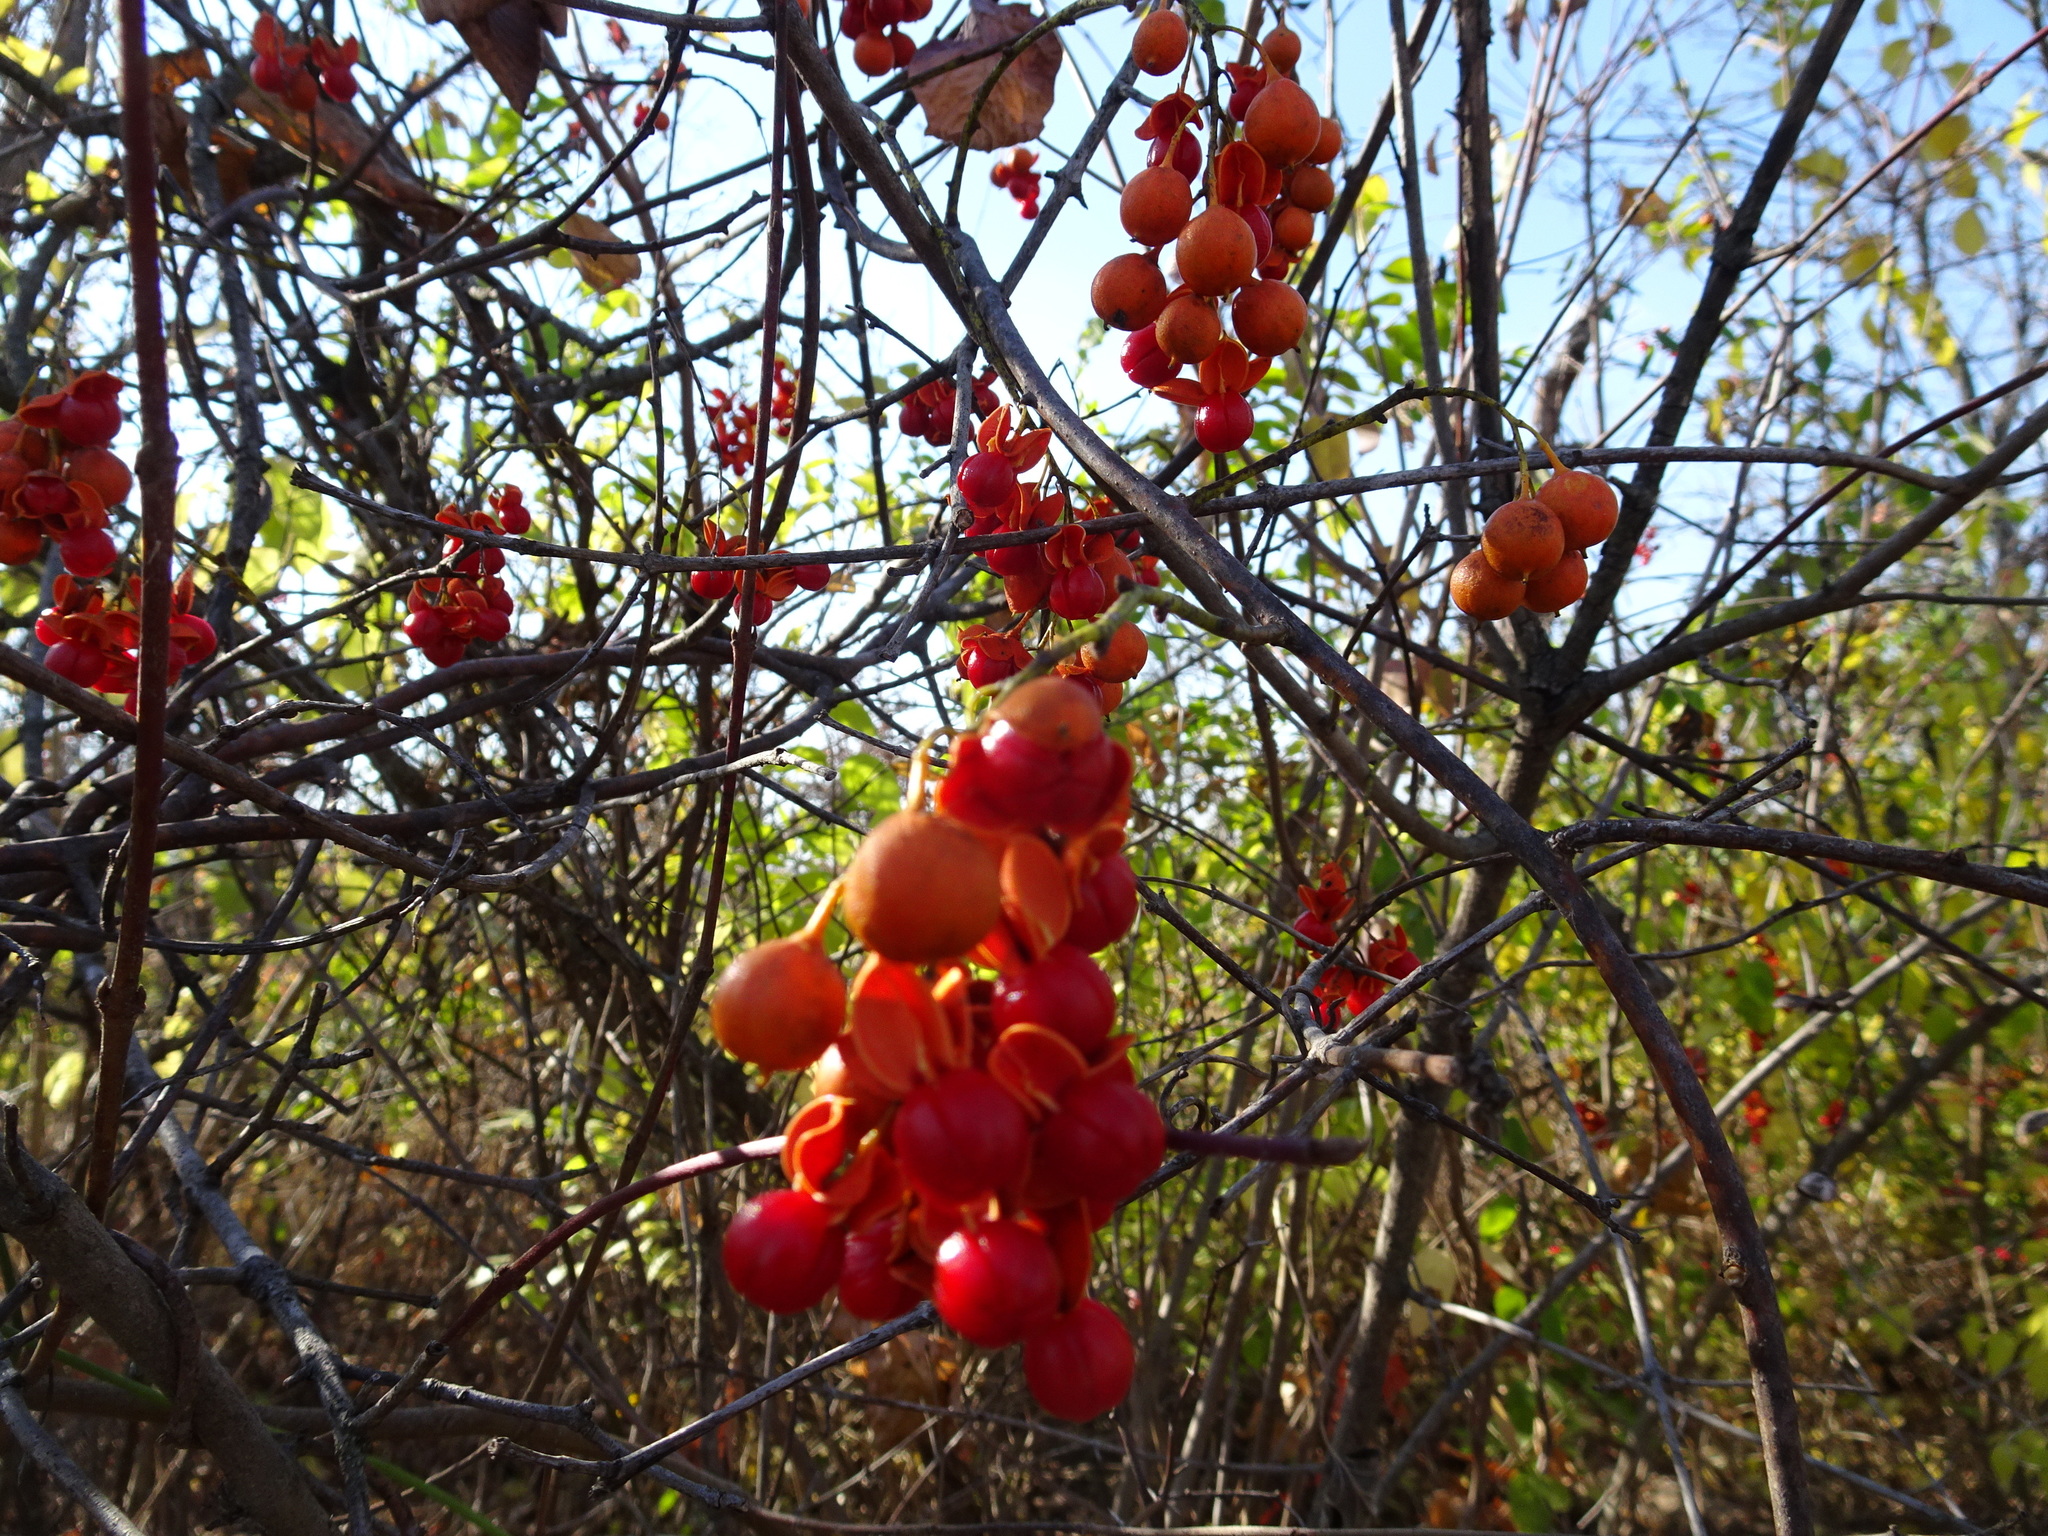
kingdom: Plantae
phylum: Tracheophyta
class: Magnoliopsida
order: Celastrales
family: Celastraceae
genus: Celastrus
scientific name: Celastrus scandens
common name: American bittersweet
